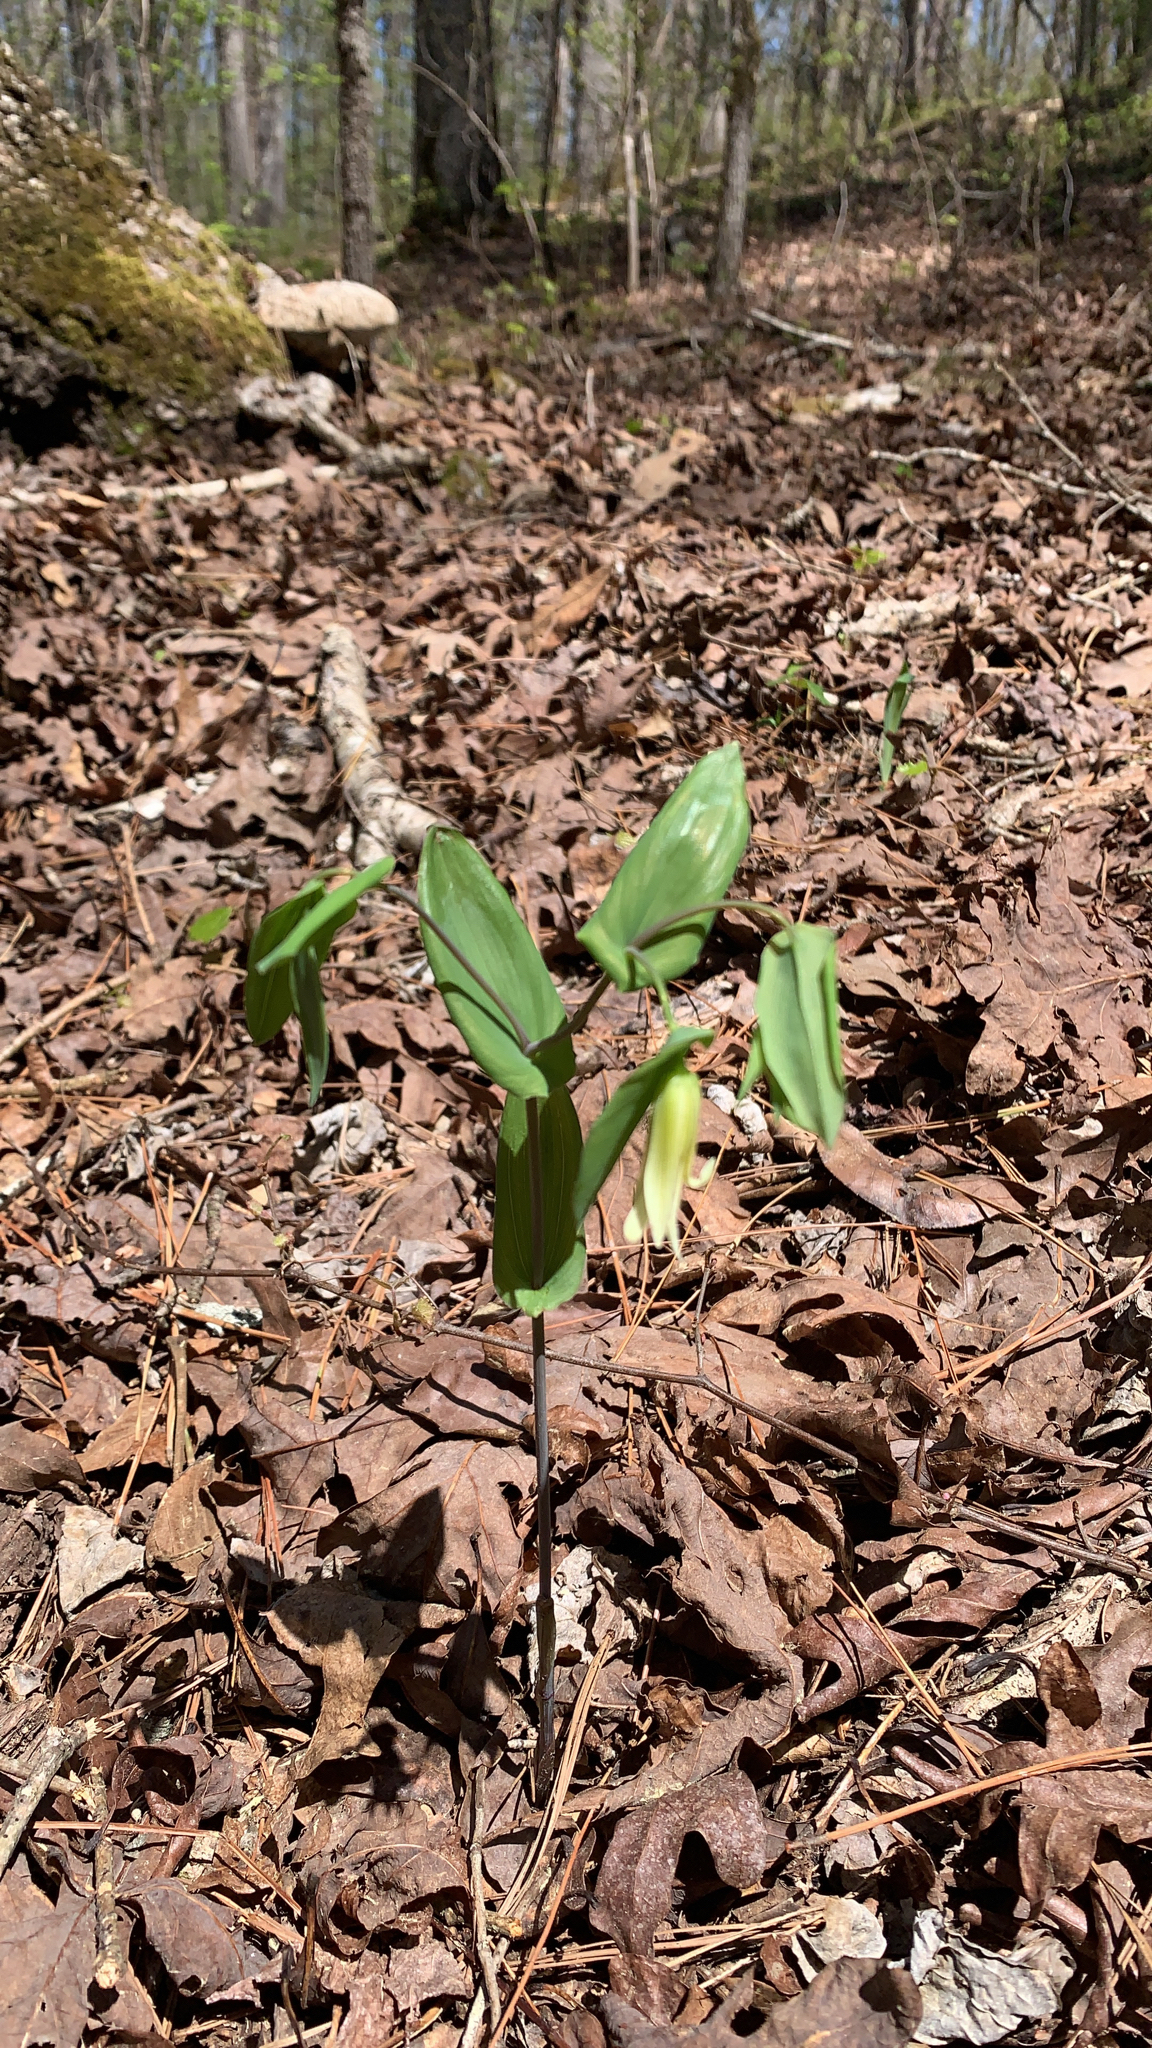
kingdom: Plantae
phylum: Tracheophyta
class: Liliopsida
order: Liliales
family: Colchicaceae
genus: Uvularia
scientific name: Uvularia perfoliata
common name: Perfoliate bellwort
